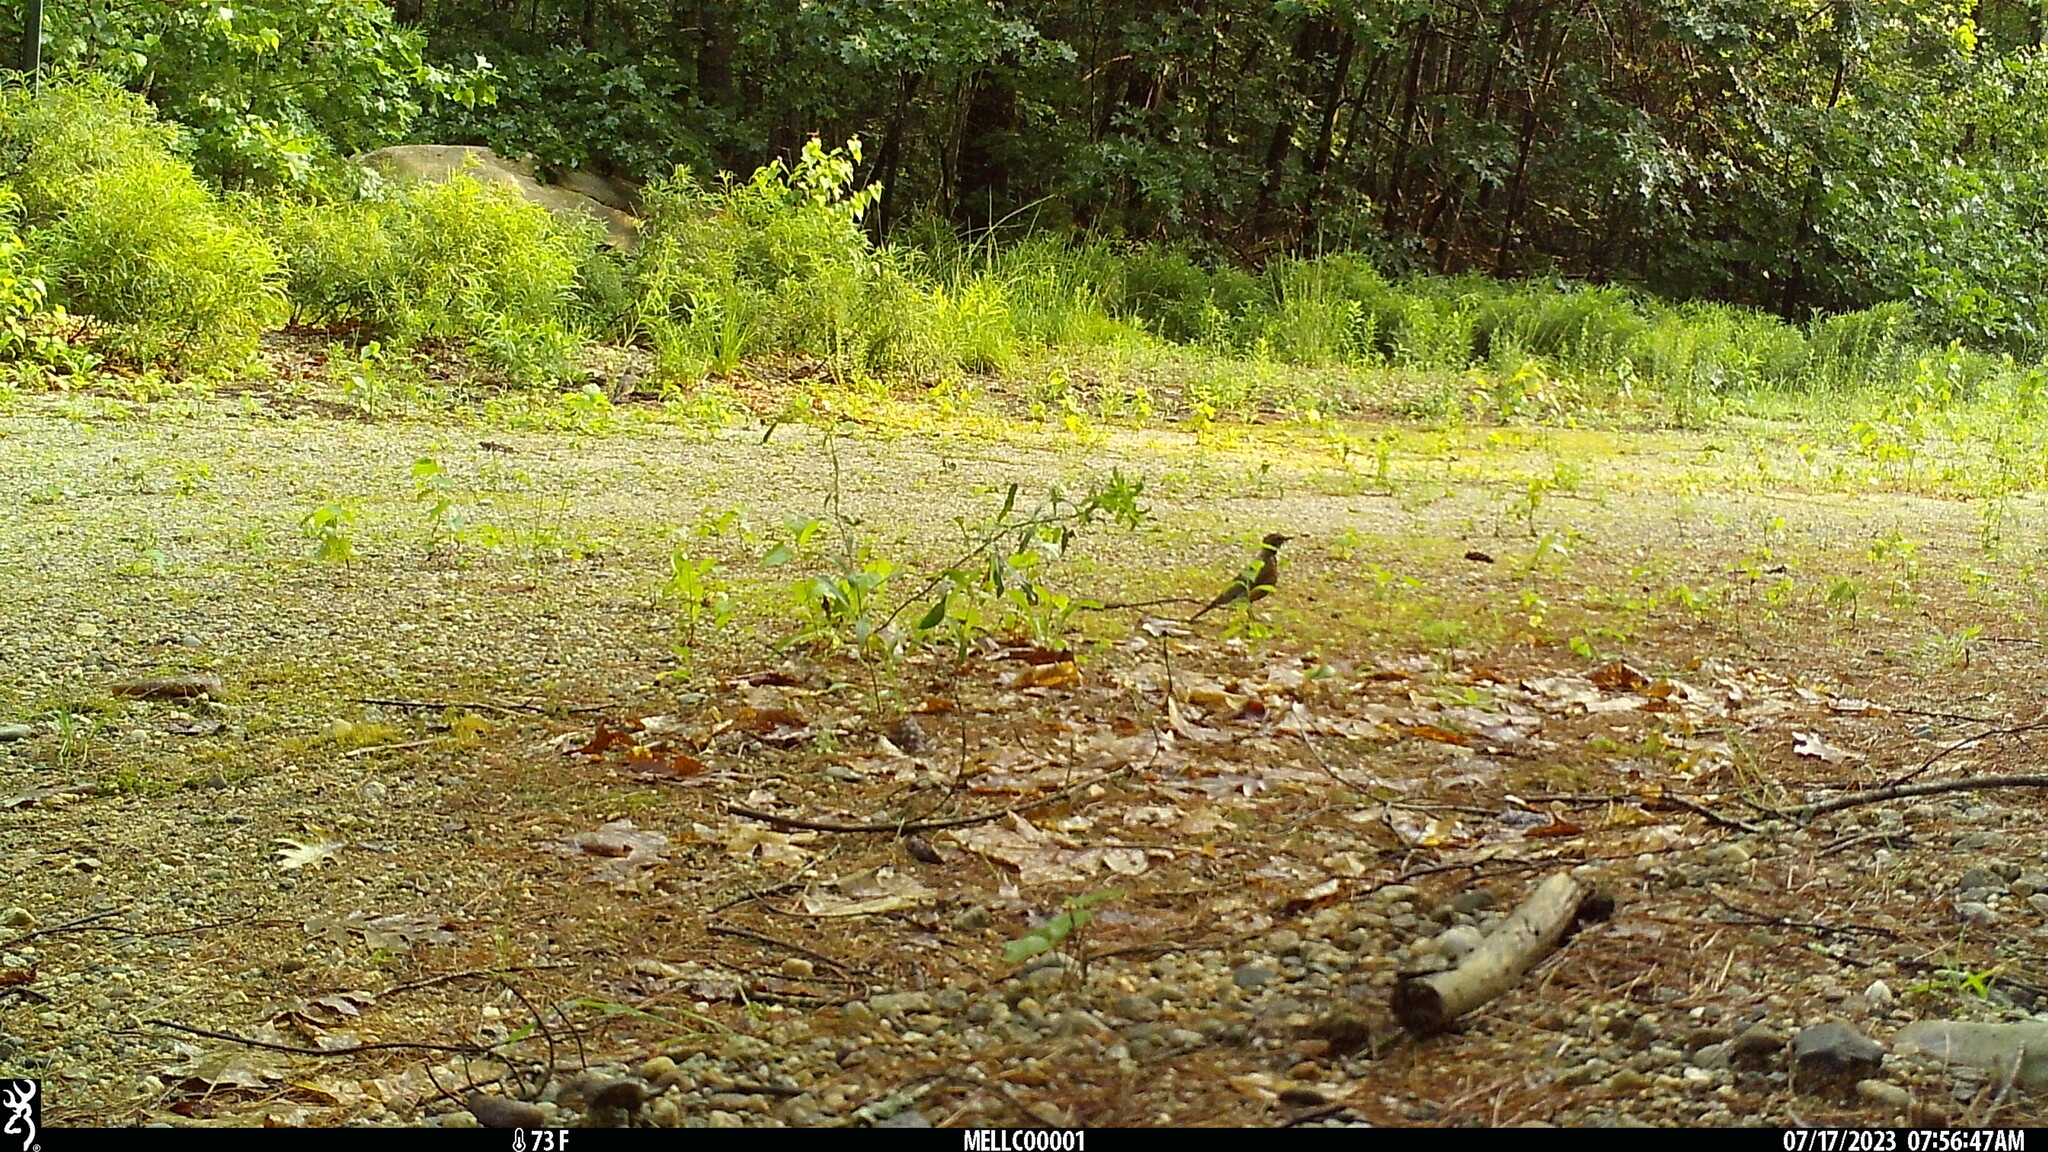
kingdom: Animalia
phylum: Chordata
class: Aves
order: Passeriformes
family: Turdidae
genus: Turdus
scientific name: Turdus migratorius
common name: American robin
